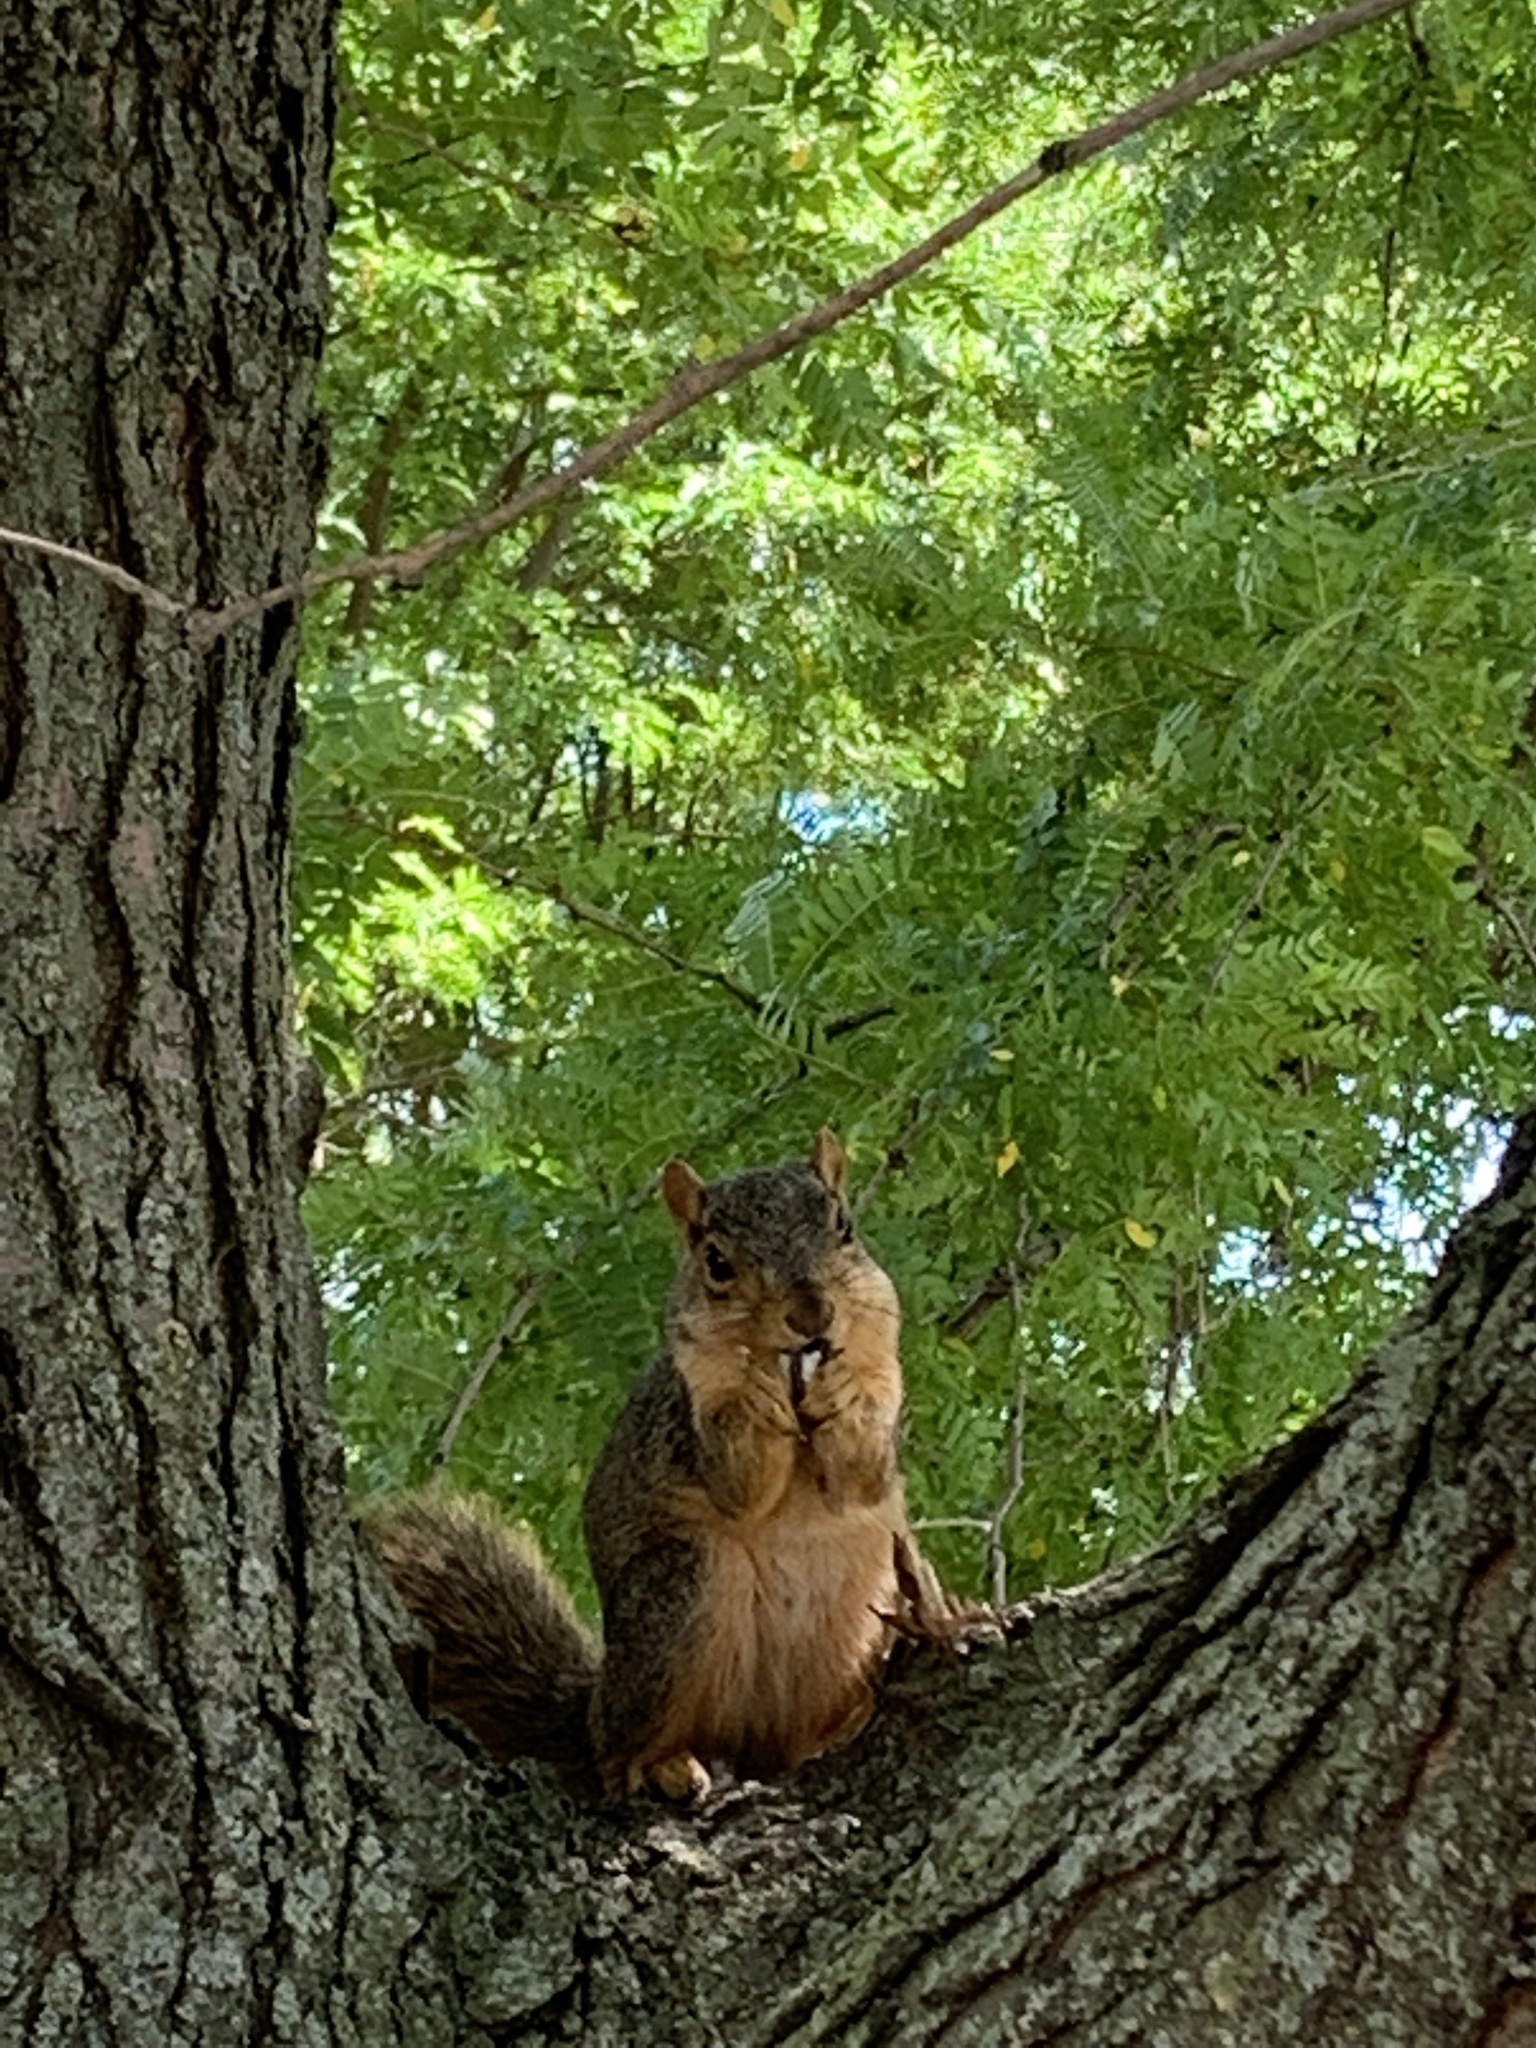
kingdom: Animalia
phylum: Chordata
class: Mammalia
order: Rodentia
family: Sciuridae
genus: Sciurus
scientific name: Sciurus niger
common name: Fox squirrel
